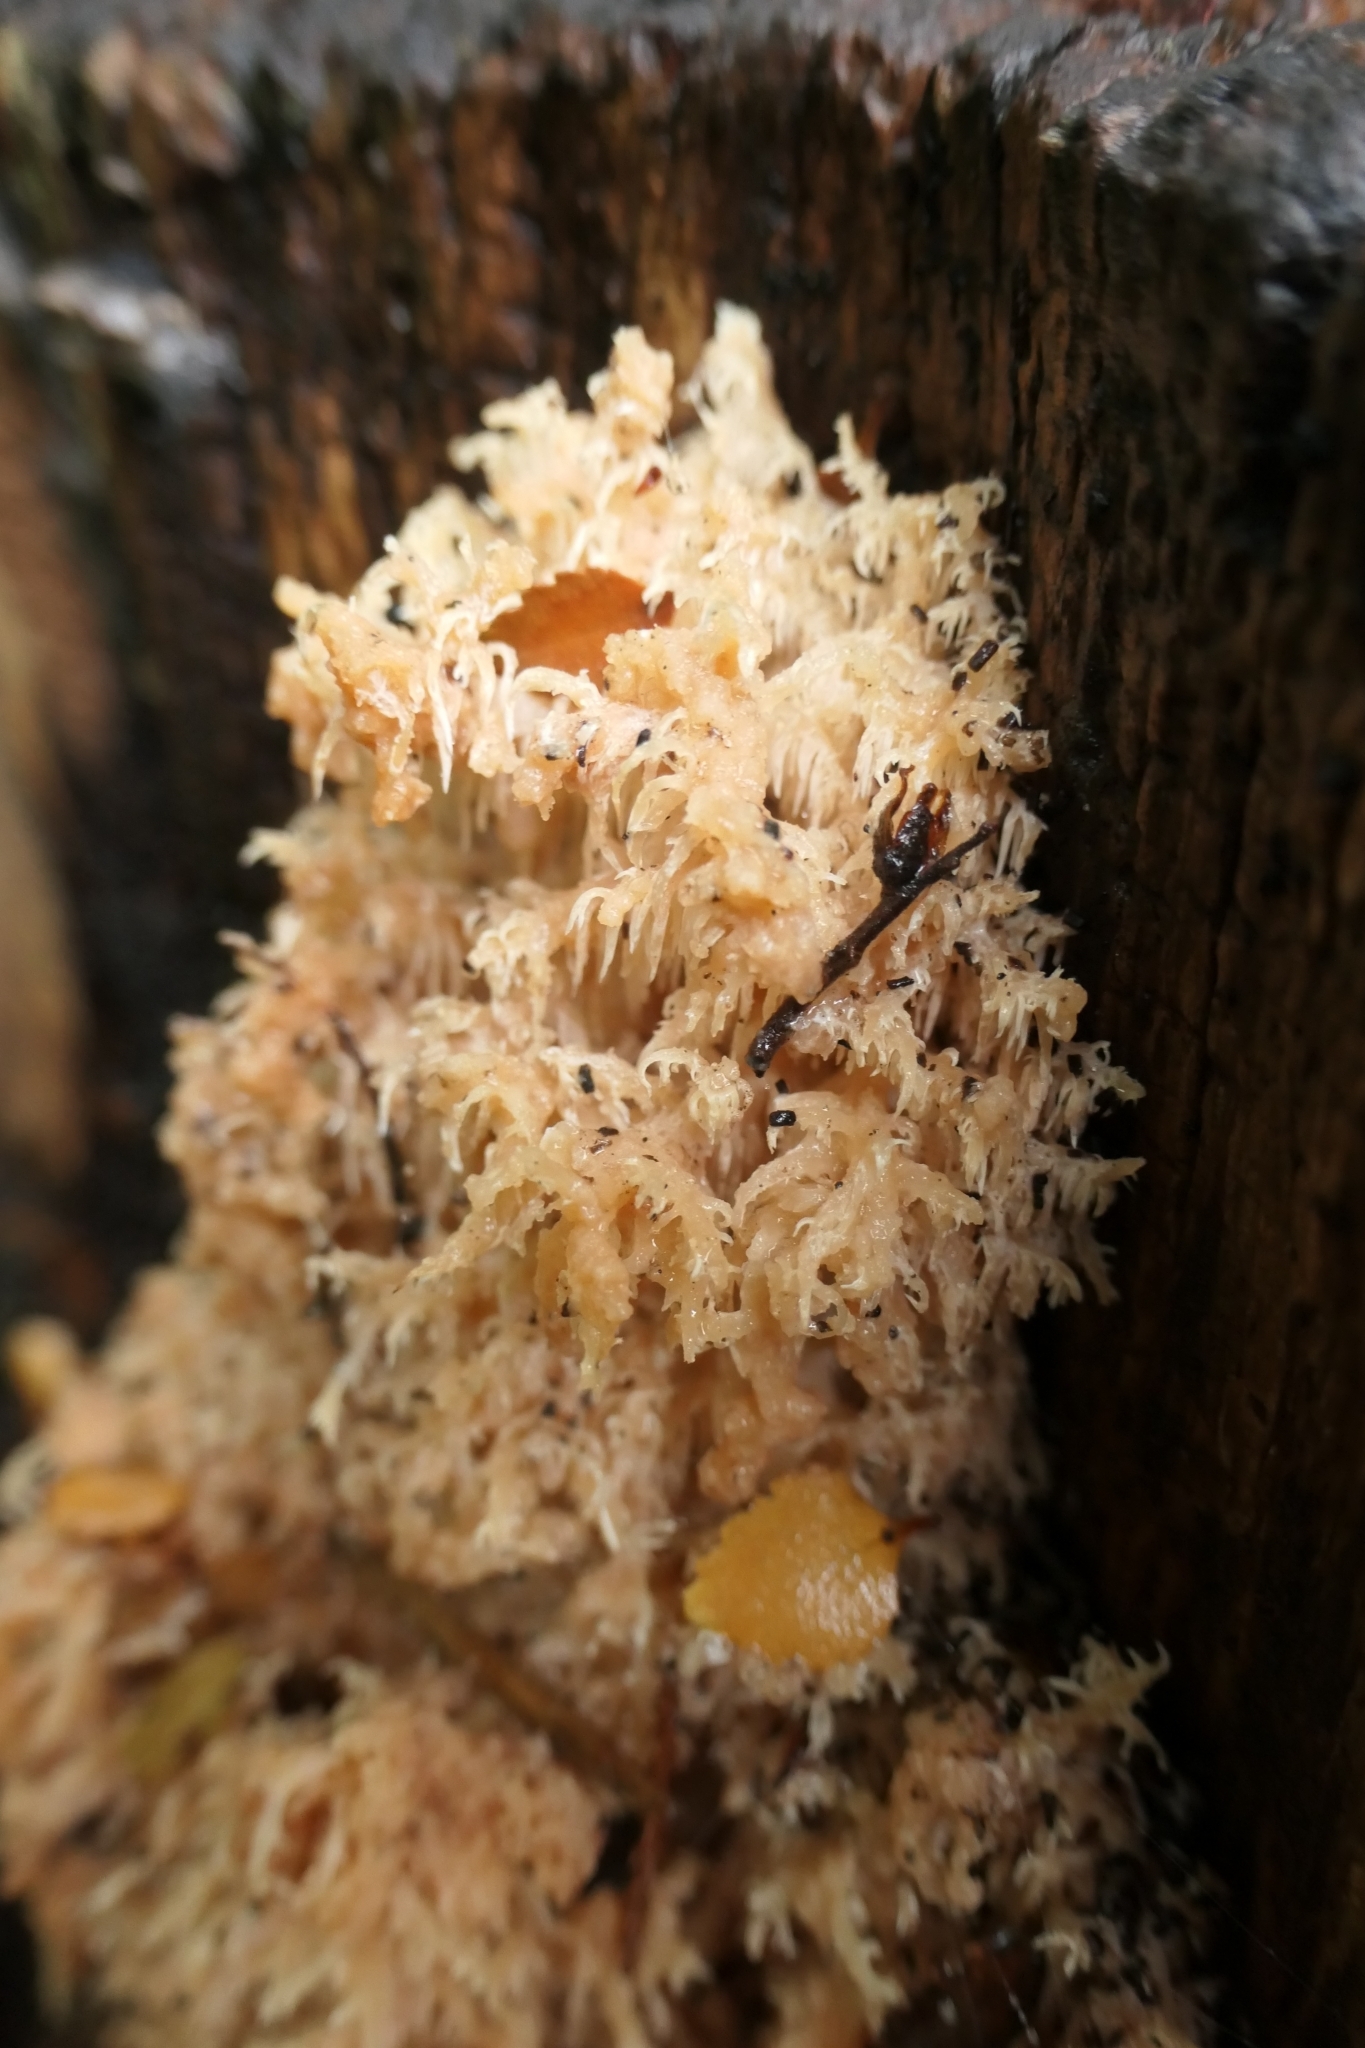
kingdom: Fungi
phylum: Basidiomycota
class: Agaricomycetes
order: Russulales
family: Hericiaceae
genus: Hericium
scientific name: Hericium novae-zealandiae
